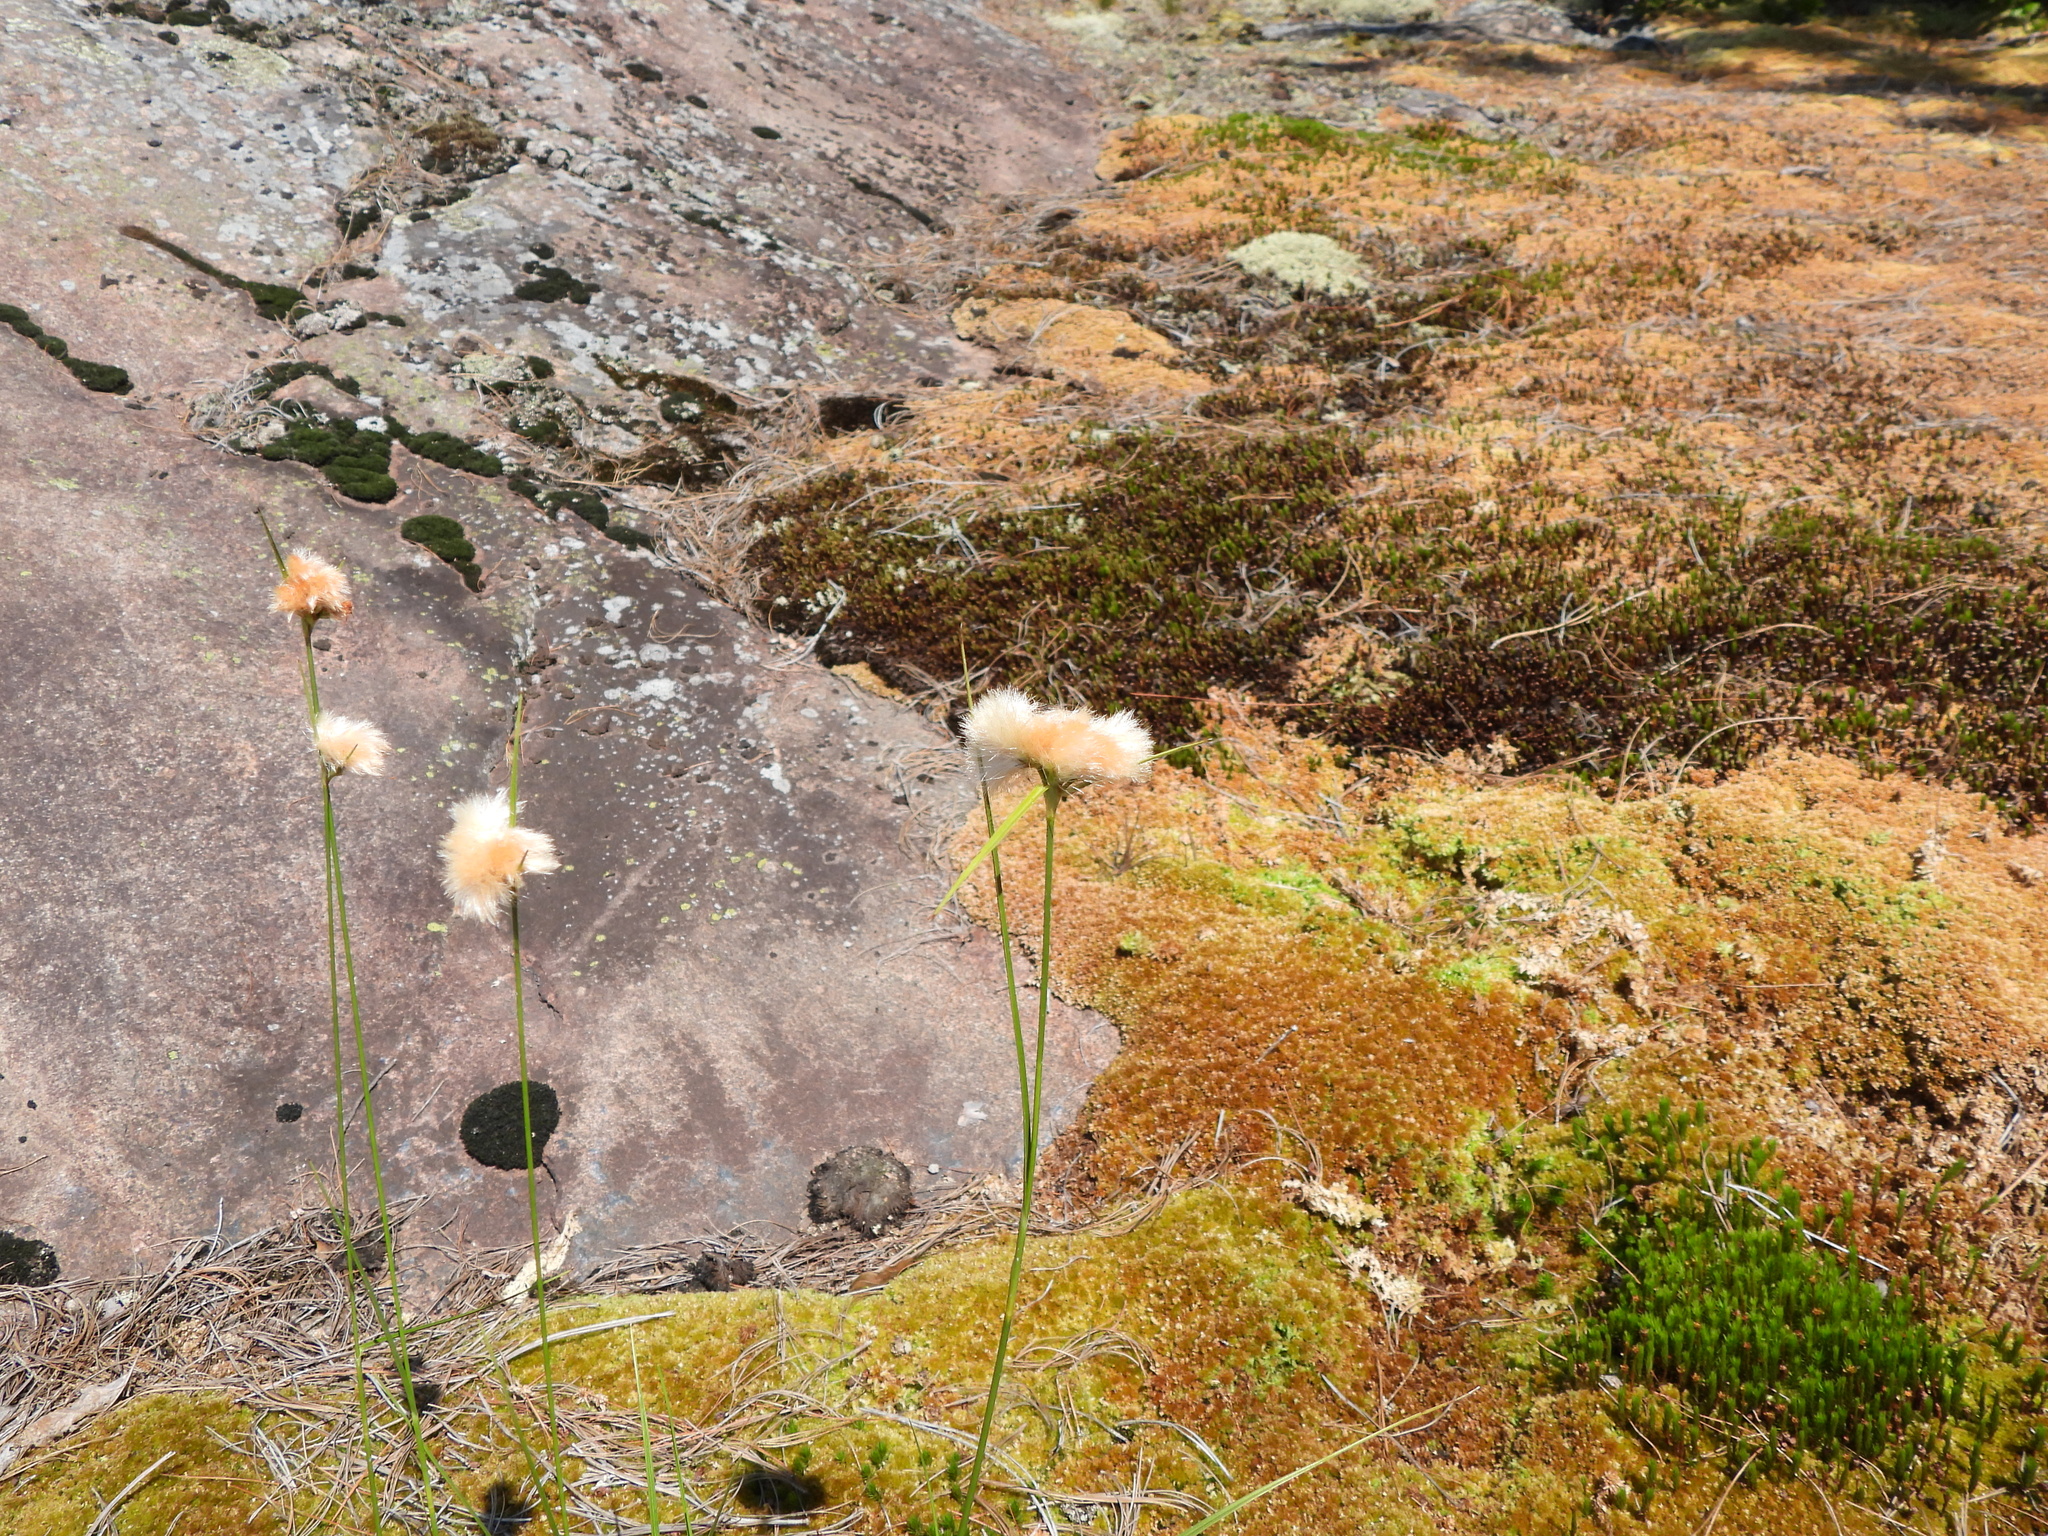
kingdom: Plantae
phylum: Tracheophyta
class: Liliopsida
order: Poales
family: Cyperaceae
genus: Eriophorum
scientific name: Eriophorum virginicum
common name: Tawny cottongrass
